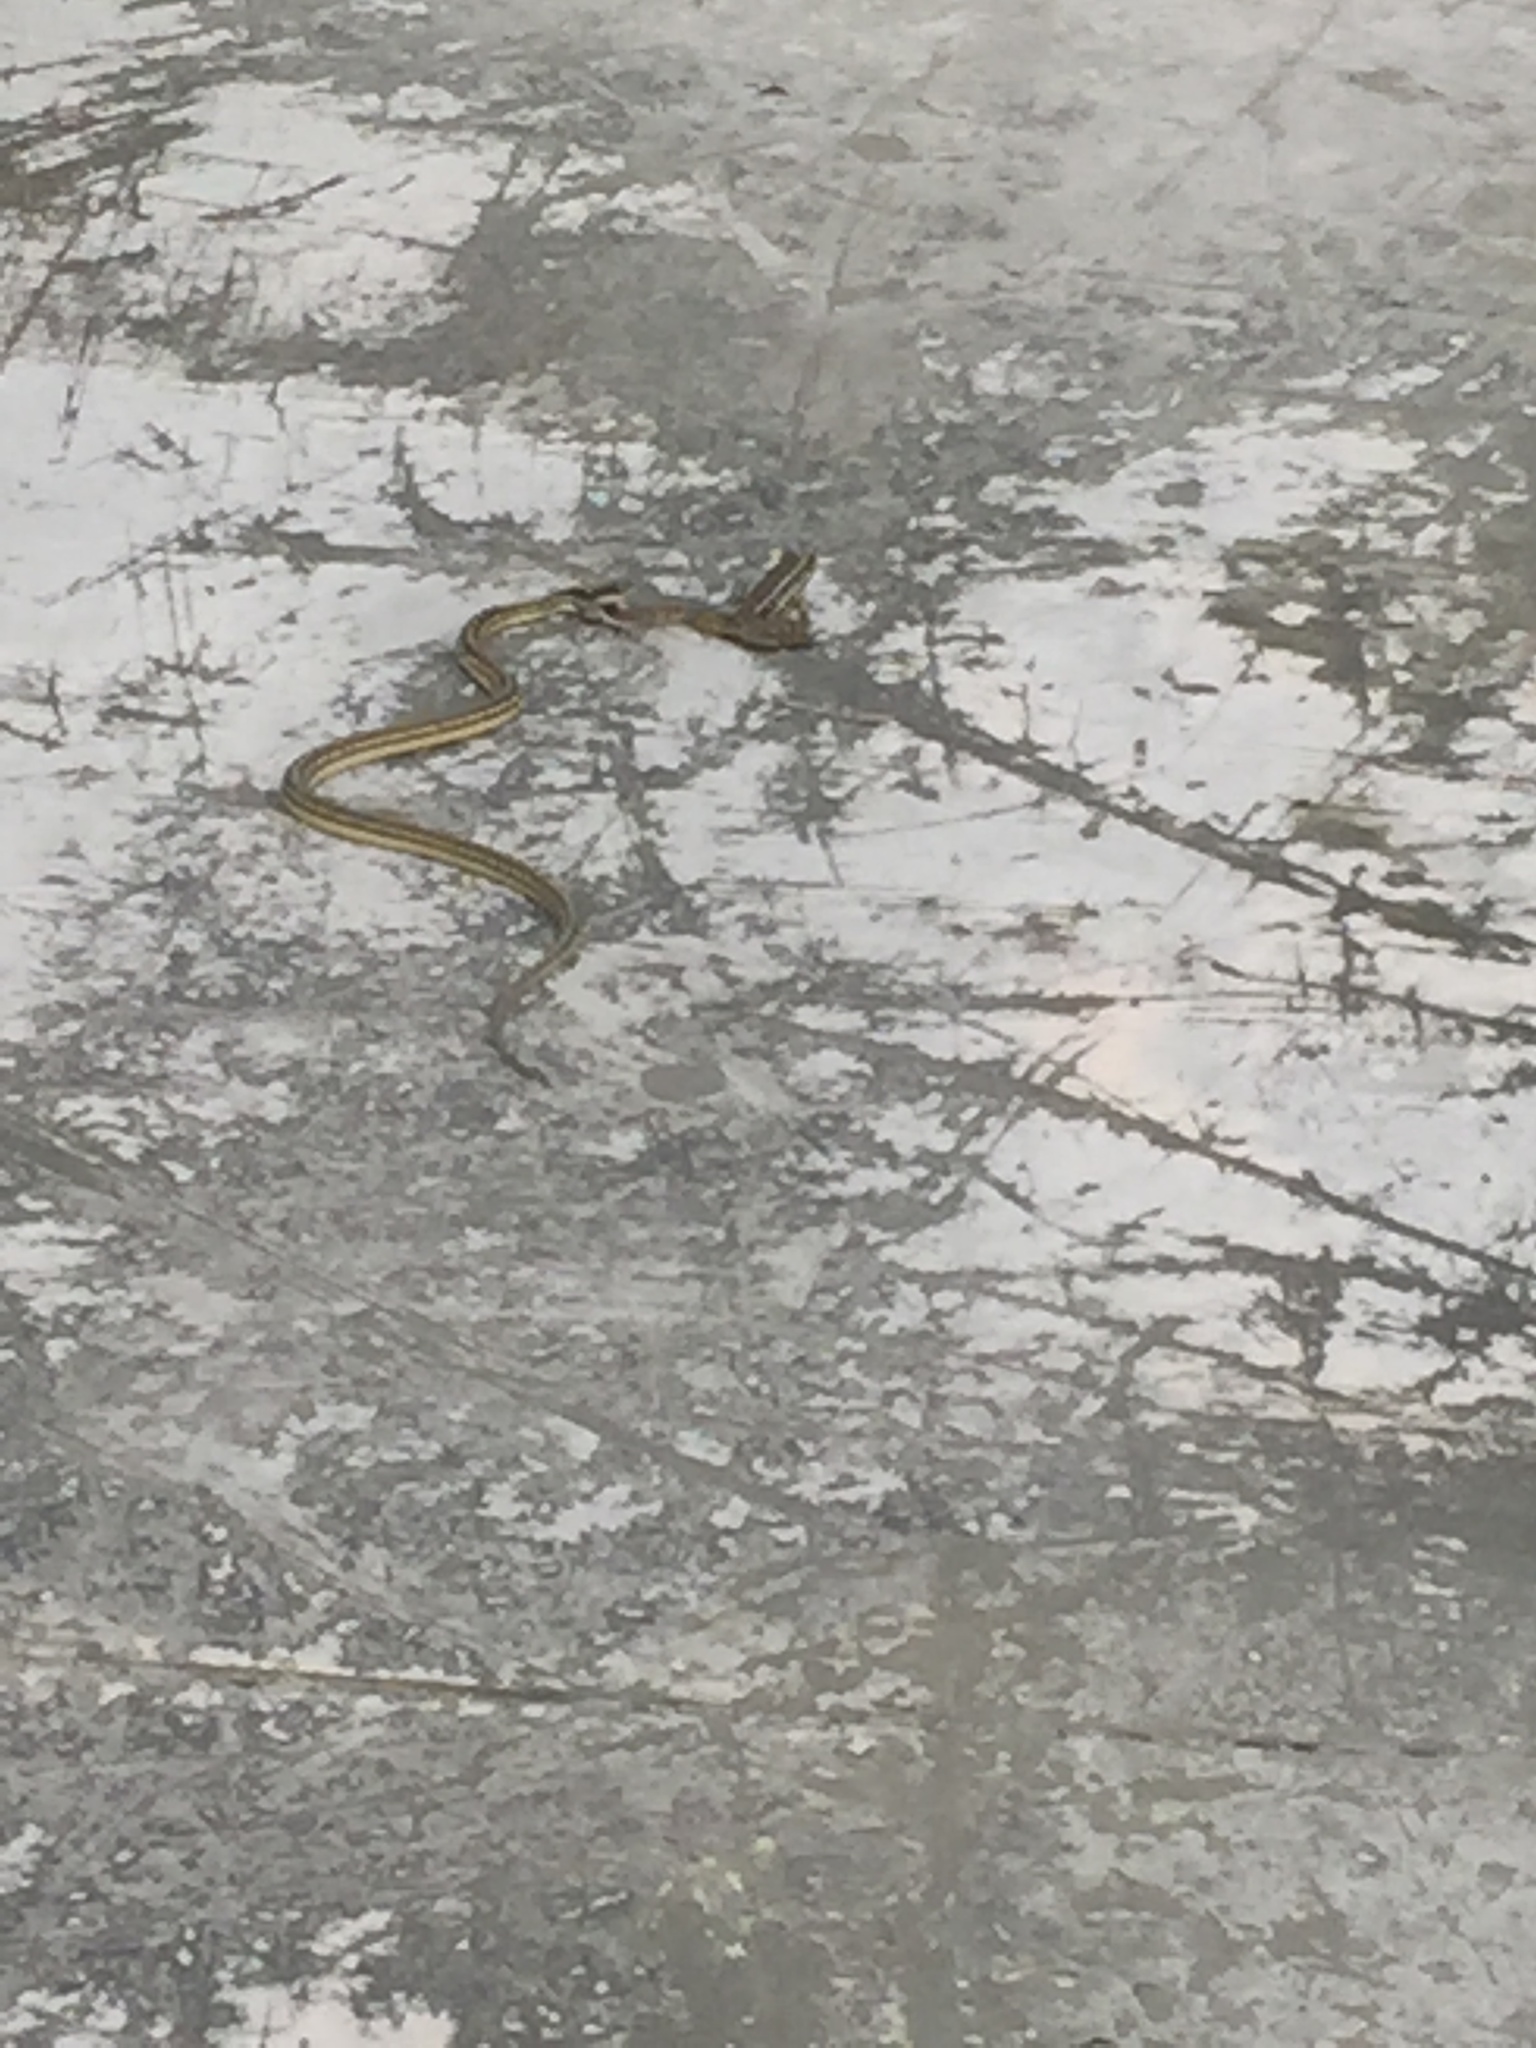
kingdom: Animalia
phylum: Chordata
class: Squamata
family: Colubridae
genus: Thamnophis
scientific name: Thamnophis proximus
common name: Western ribbon snake
